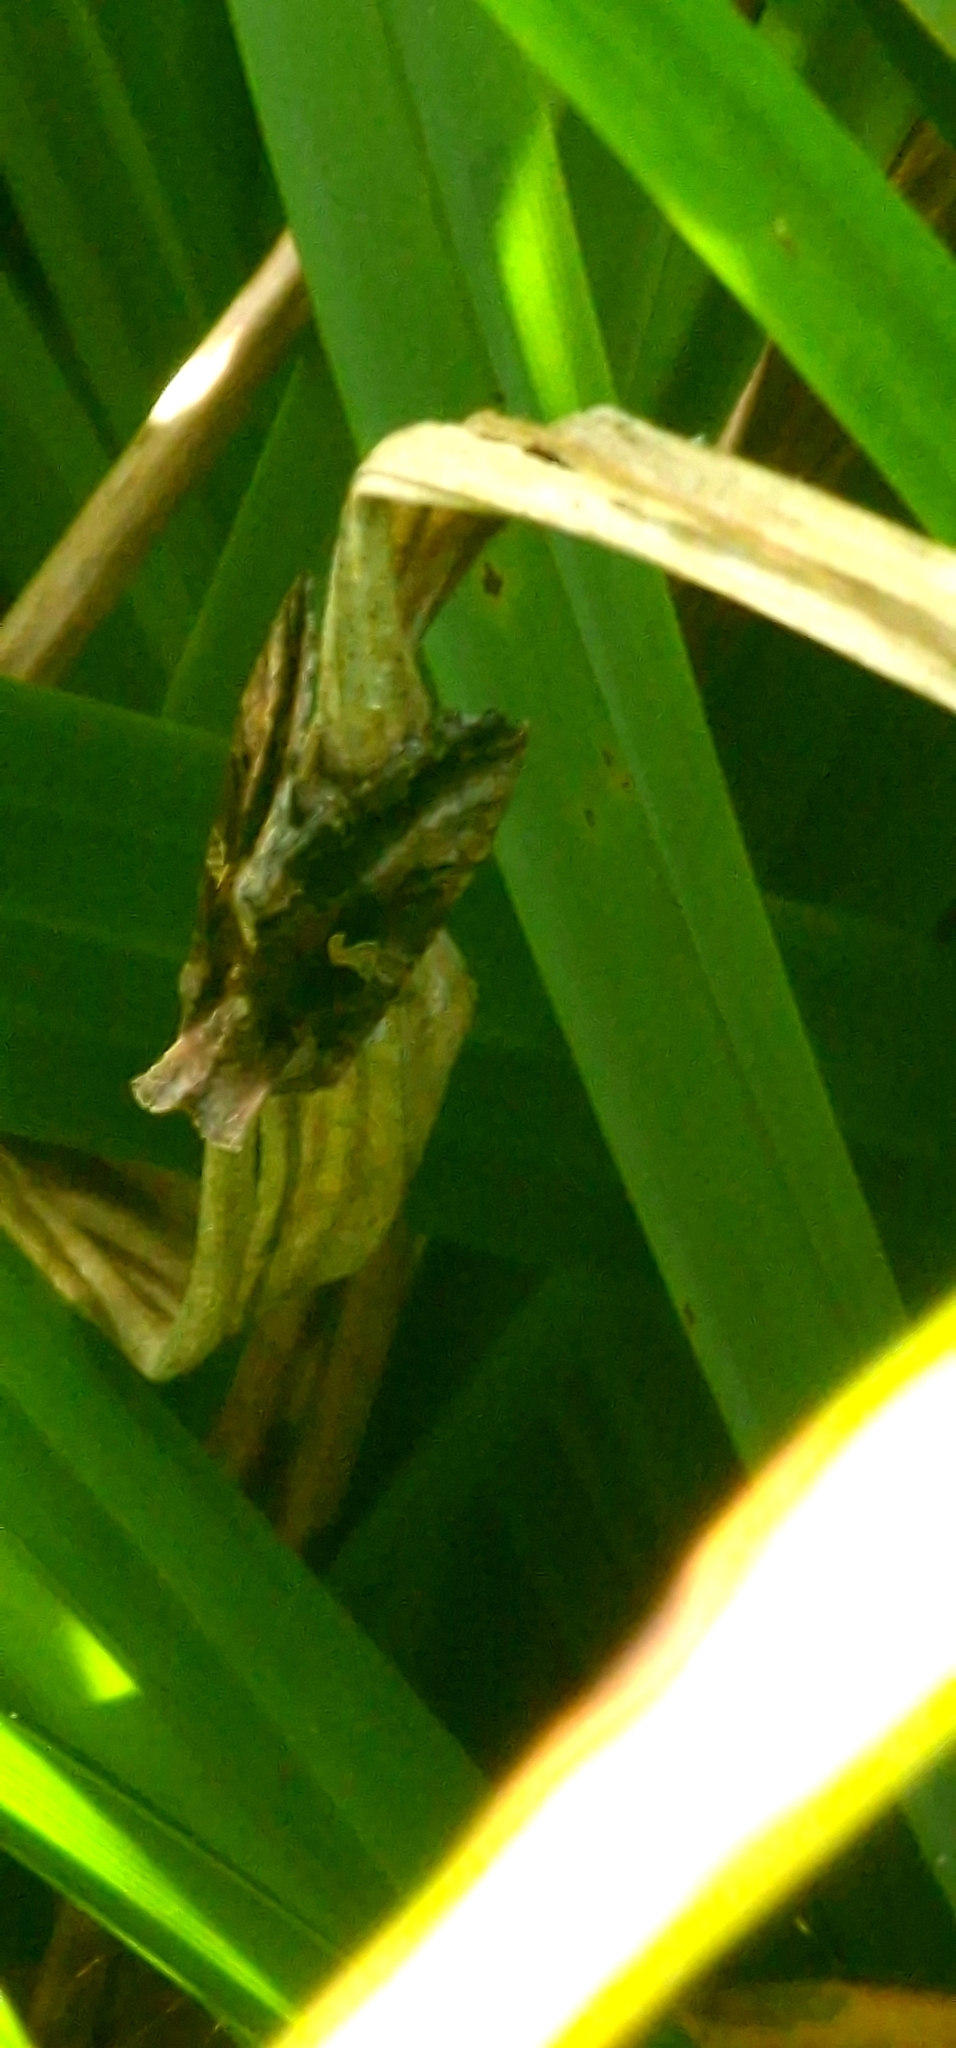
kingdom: Animalia
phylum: Arthropoda
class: Insecta
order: Lepidoptera
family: Noctuidae
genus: Autographa
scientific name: Autographa gamma
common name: Silver y
